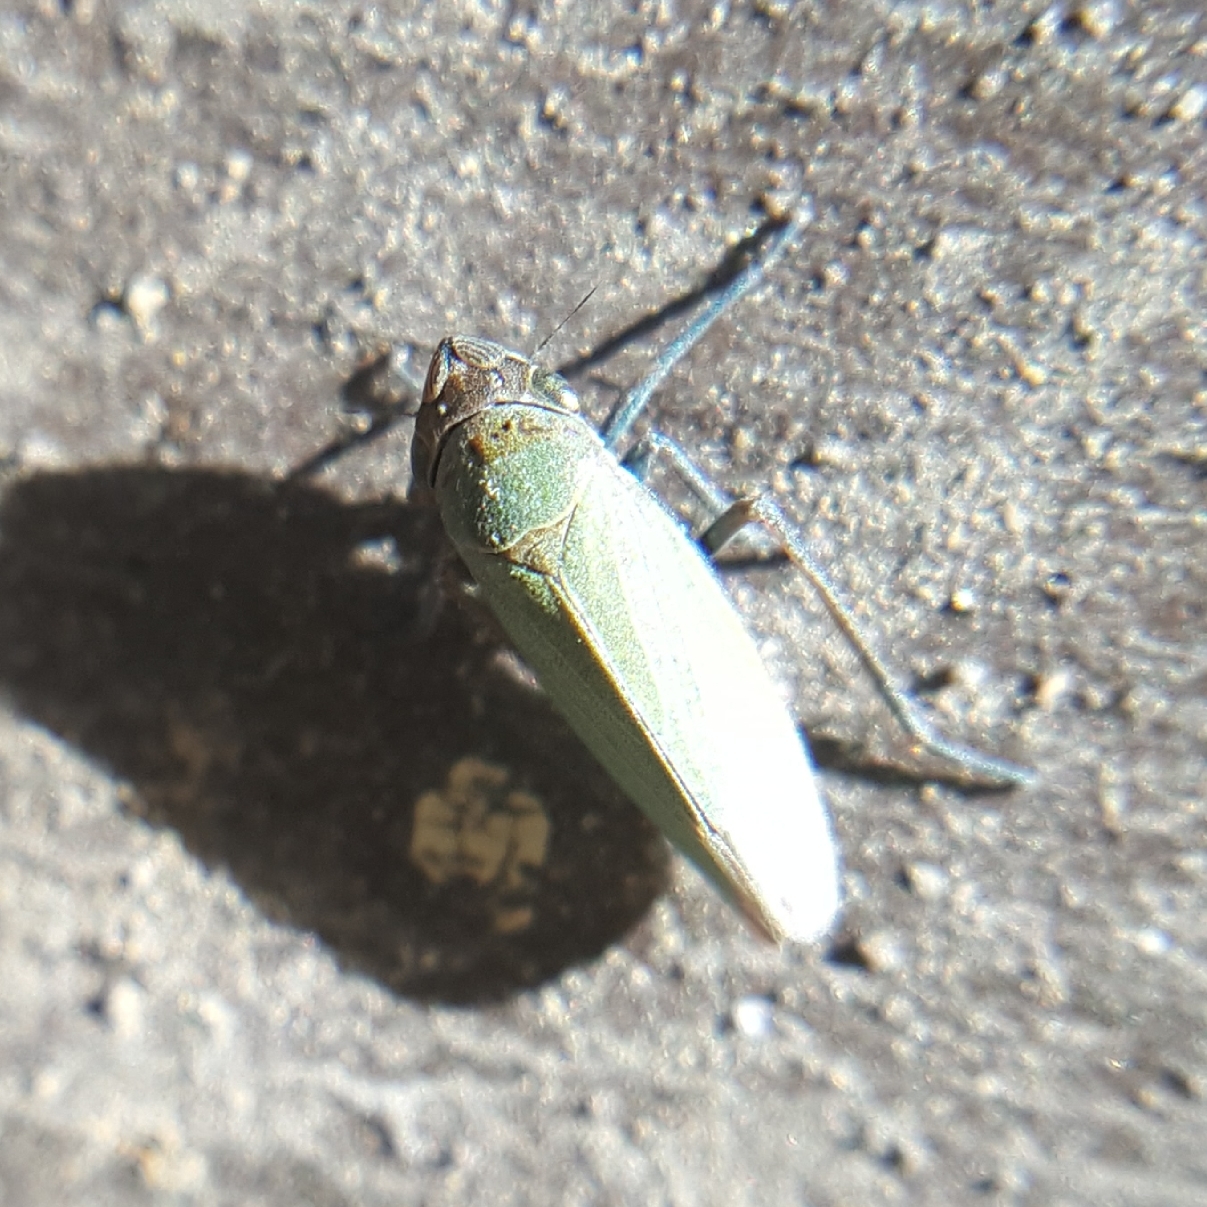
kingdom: Animalia
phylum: Arthropoda
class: Insecta
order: Hemiptera
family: Cicadellidae
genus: Helochara
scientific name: Helochara delta
